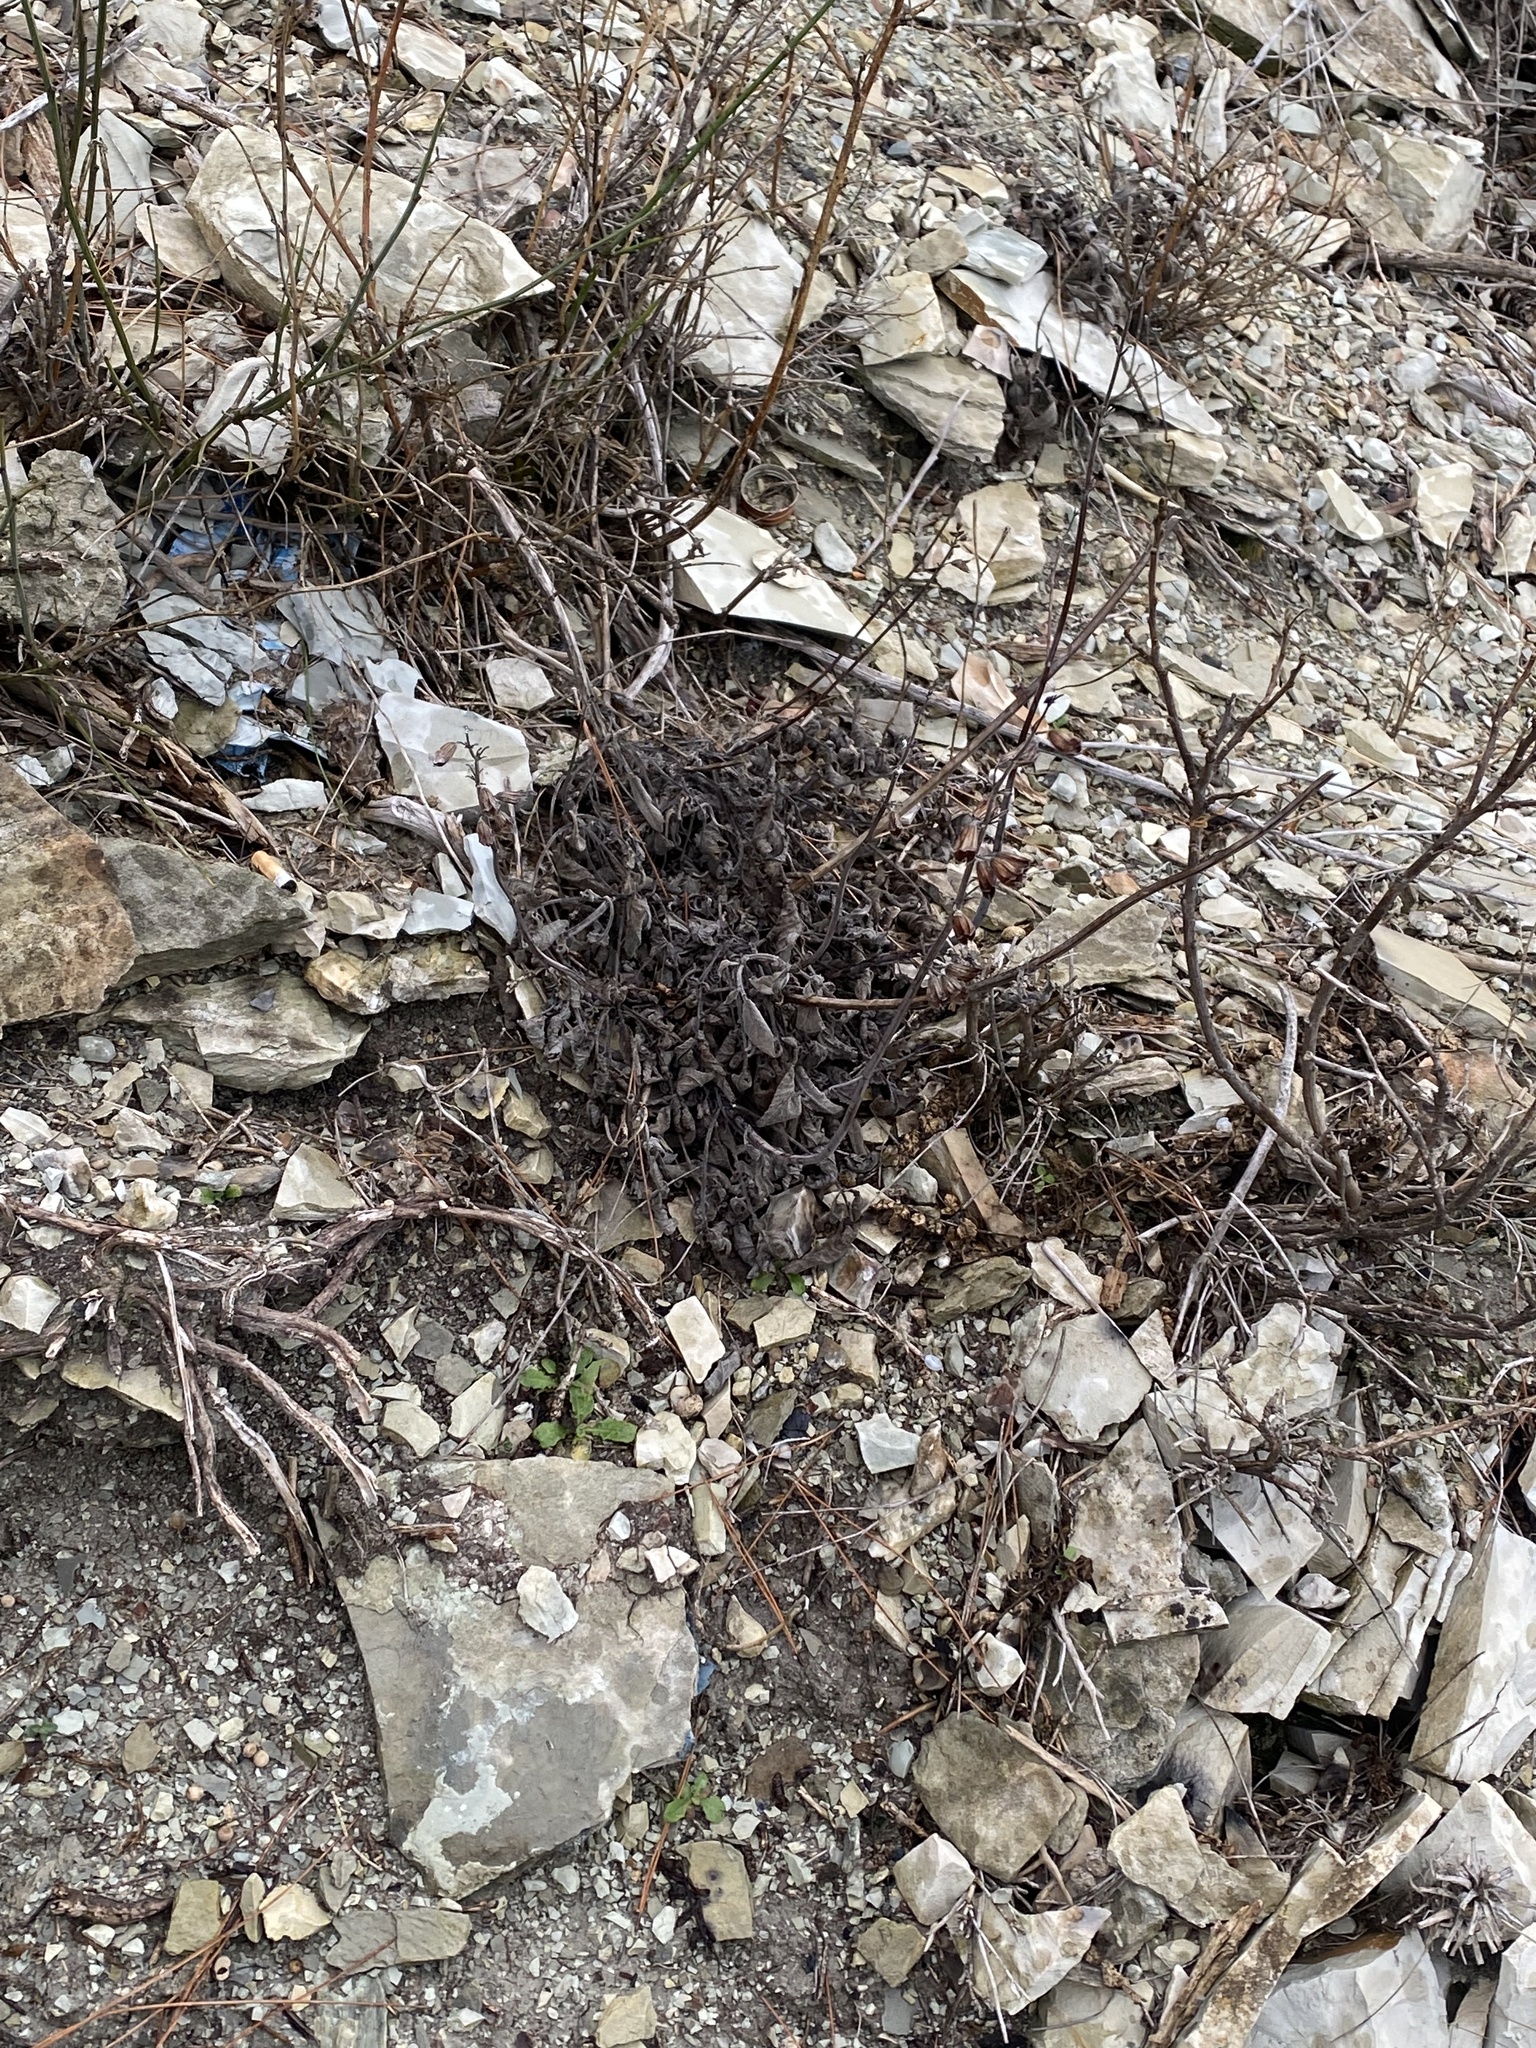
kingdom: Plantae
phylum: Tracheophyta
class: Magnoliopsida
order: Lamiales
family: Lamiaceae
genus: Salvia
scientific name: Salvia ringens
